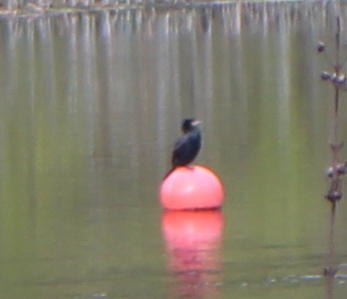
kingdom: Animalia
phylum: Chordata
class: Aves
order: Suliformes
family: Phalacrocoracidae
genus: Phalacrocorax
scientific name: Phalacrocorax auritus
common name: Double-crested cormorant
